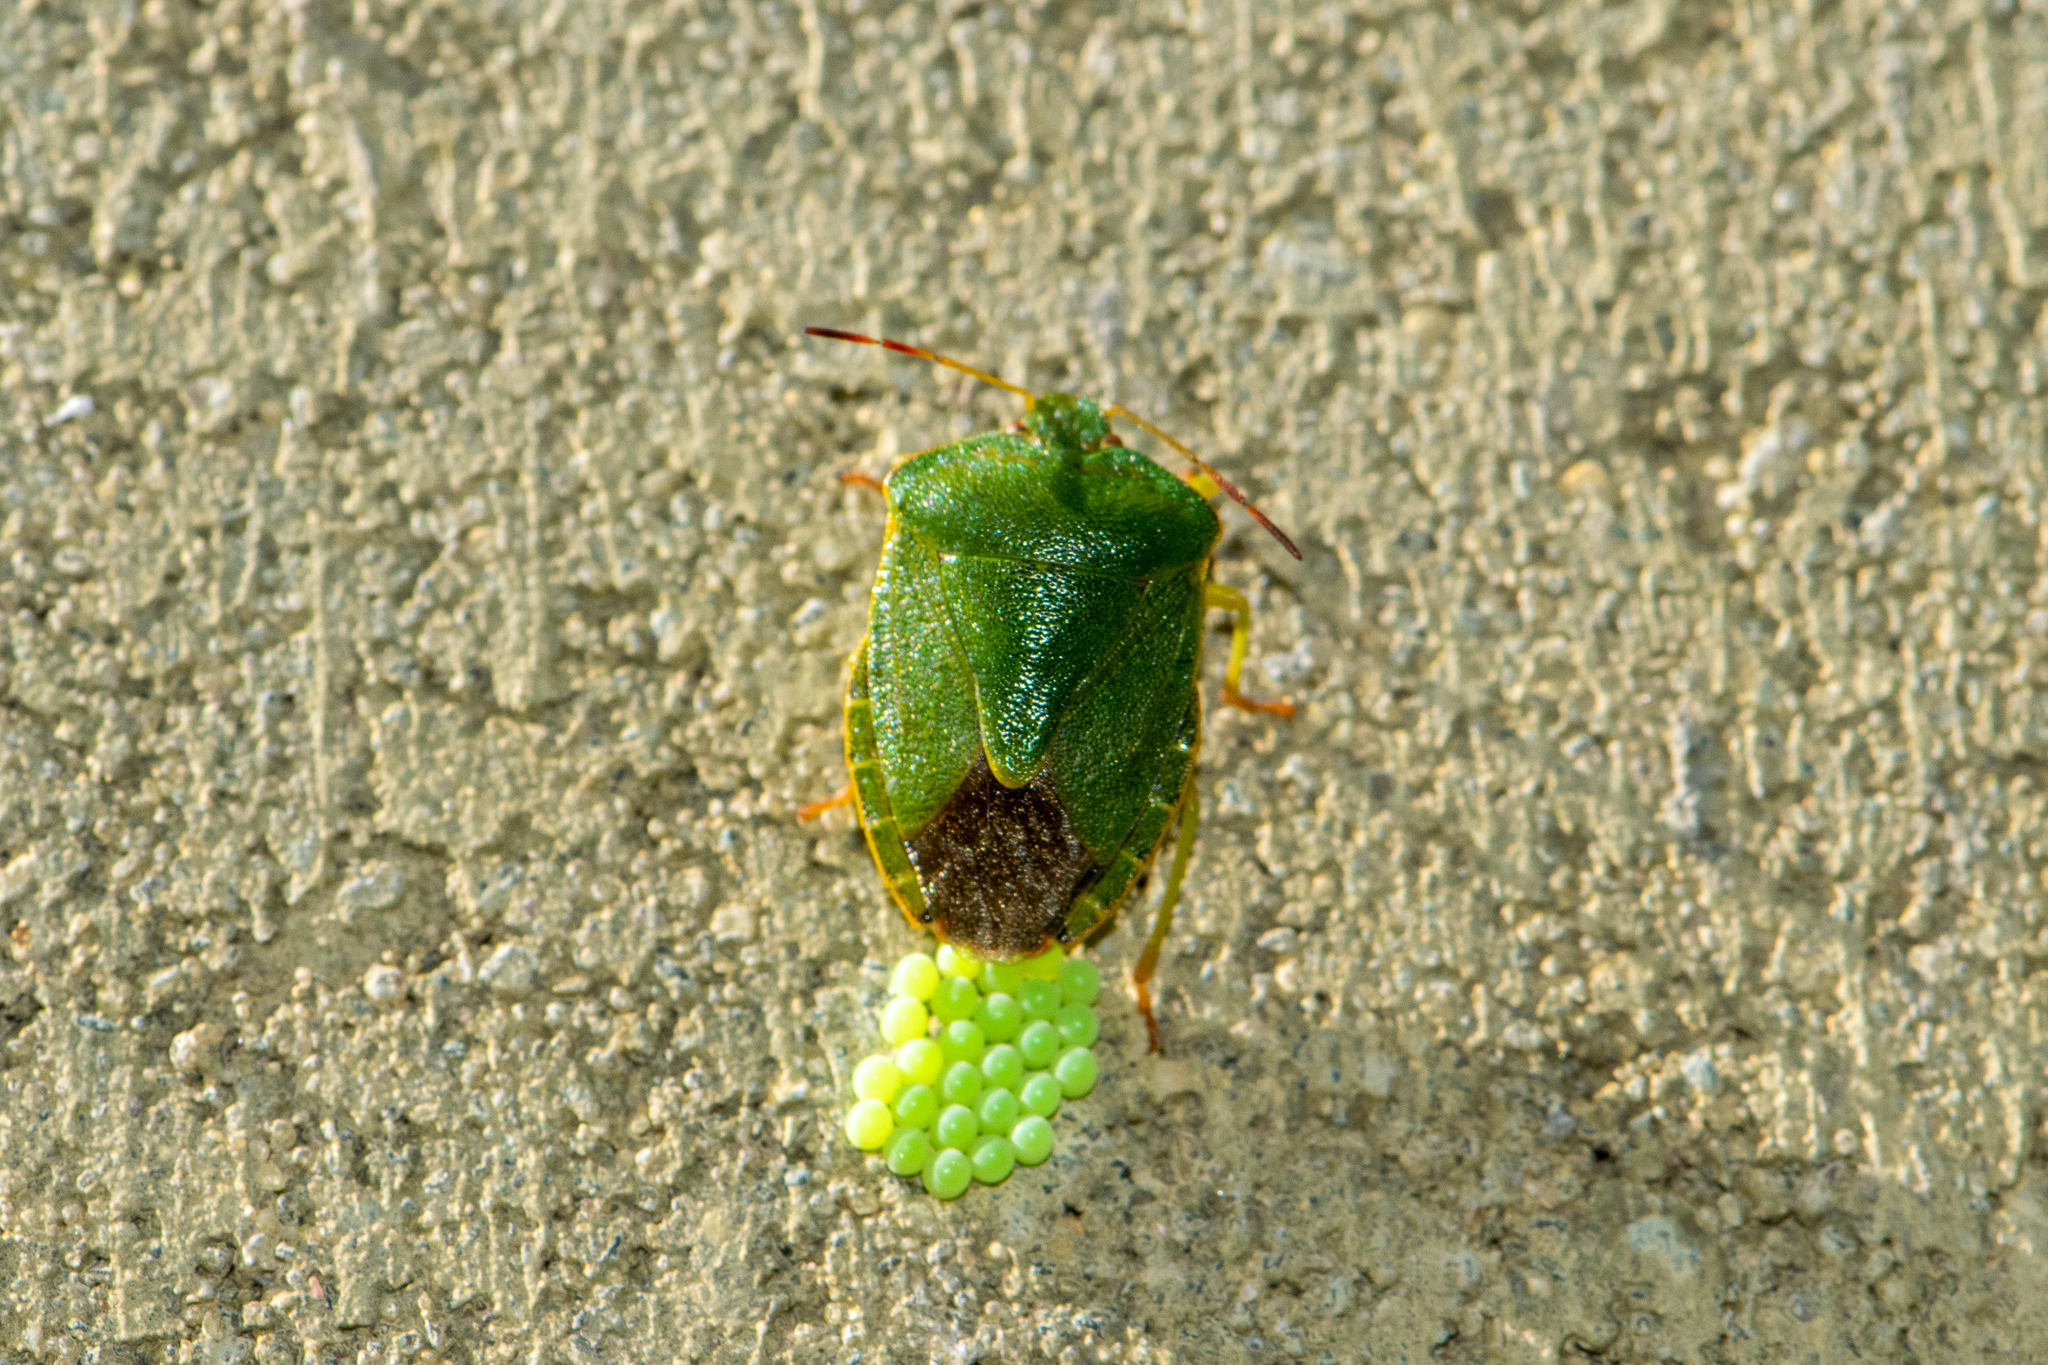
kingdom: Animalia
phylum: Arthropoda
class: Insecta
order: Hemiptera
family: Pentatomidae
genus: Palomena
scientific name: Palomena prasina
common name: Green shieldbug
